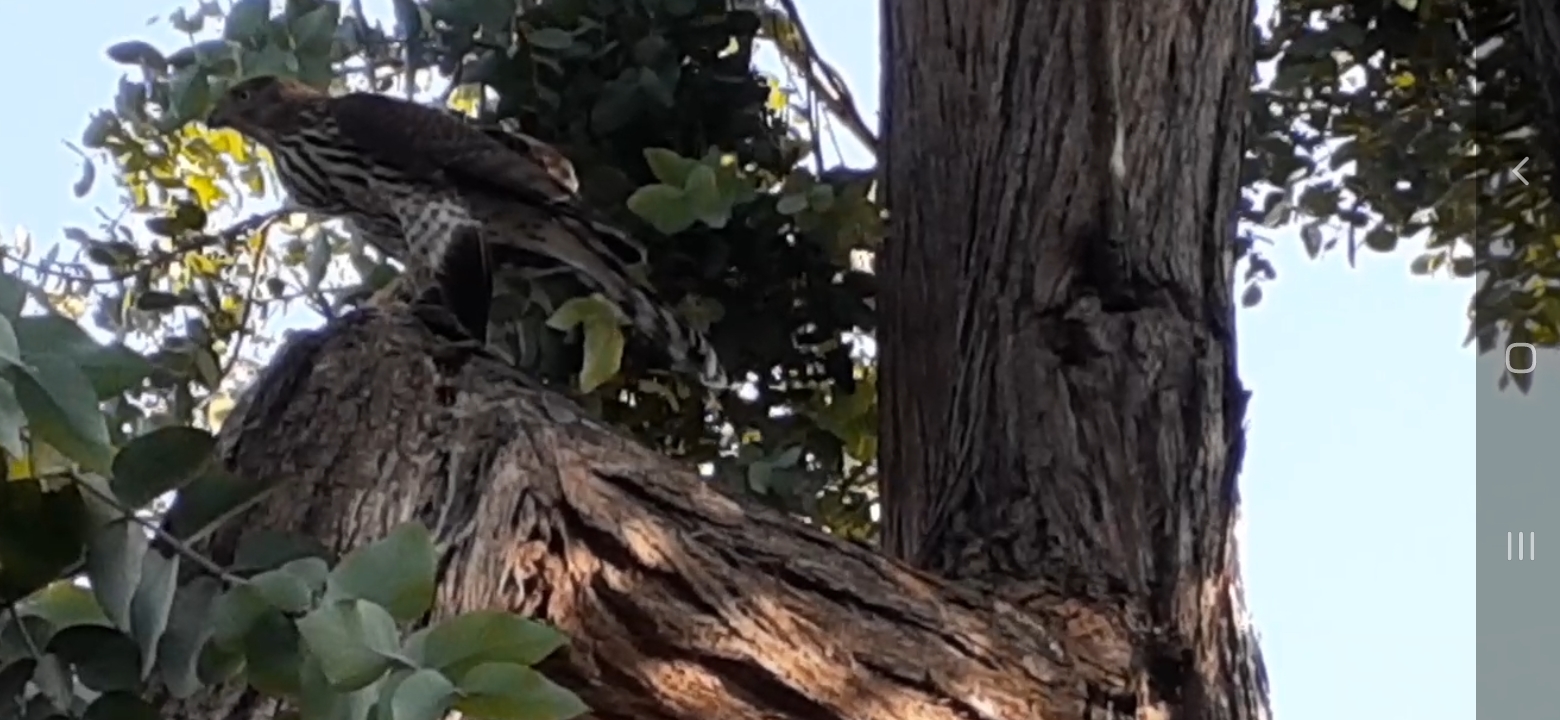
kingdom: Animalia
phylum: Chordata
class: Aves
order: Accipitriformes
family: Accipitridae
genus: Accipiter
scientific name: Accipiter cooperii
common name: Cooper's hawk
